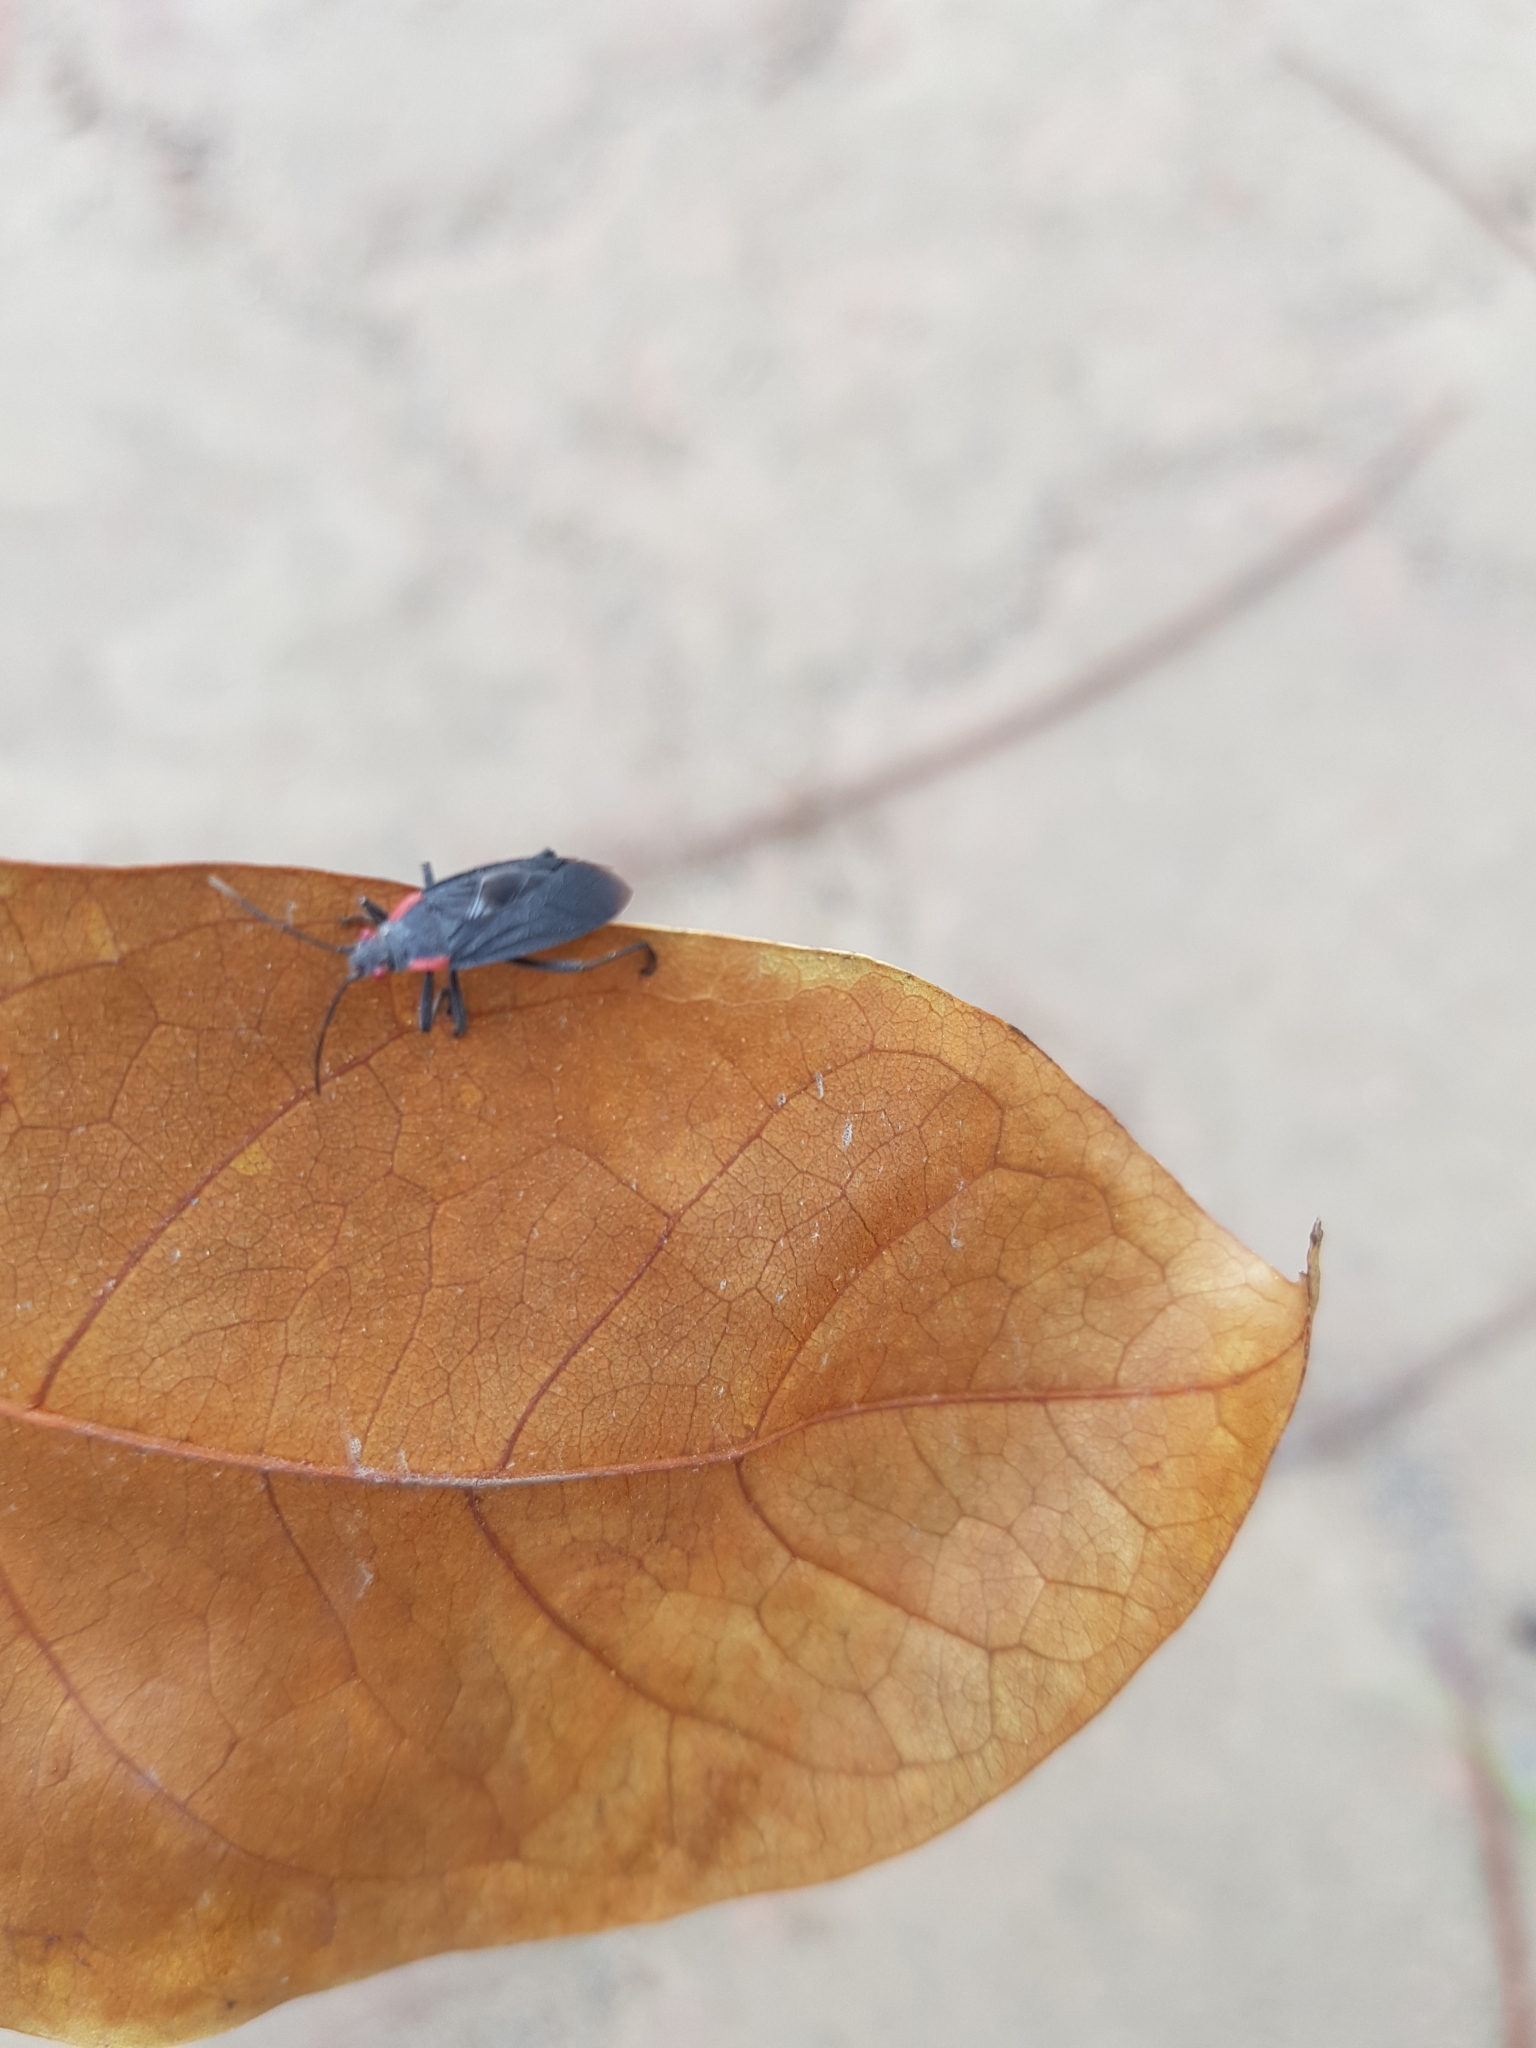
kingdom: Animalia
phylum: Arthropoda
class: Insecta
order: Hemiptera
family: Rhopalidae
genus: Jadera
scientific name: Jadera haematoloma
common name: Red-shouldered bug
